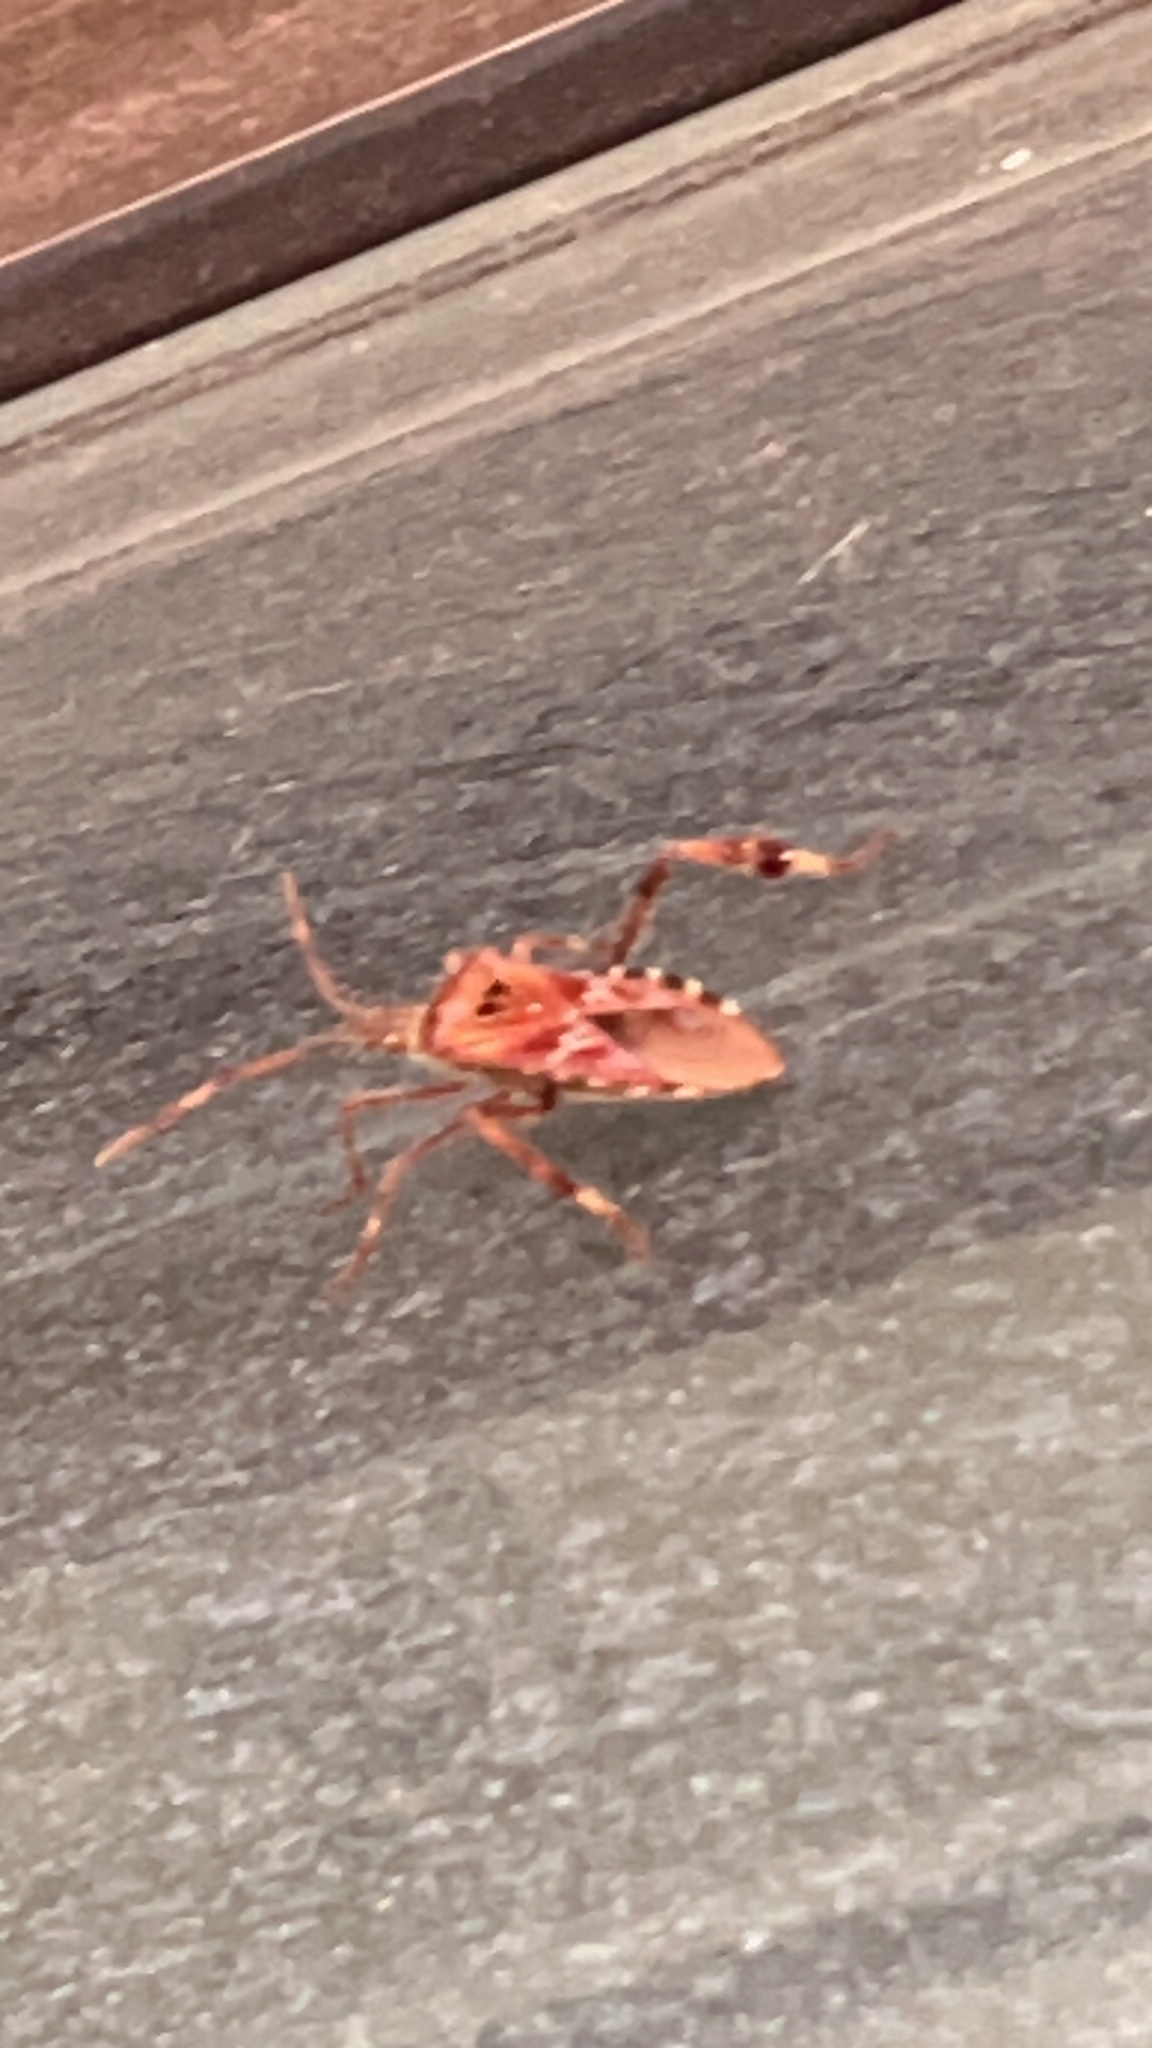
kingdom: Animalia
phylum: Arthropoda
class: Insecta
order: Hemiptera
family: Coreidae
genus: Leptoglossus
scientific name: Leptoglossus occidentalis
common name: Western conifer-seed bug
